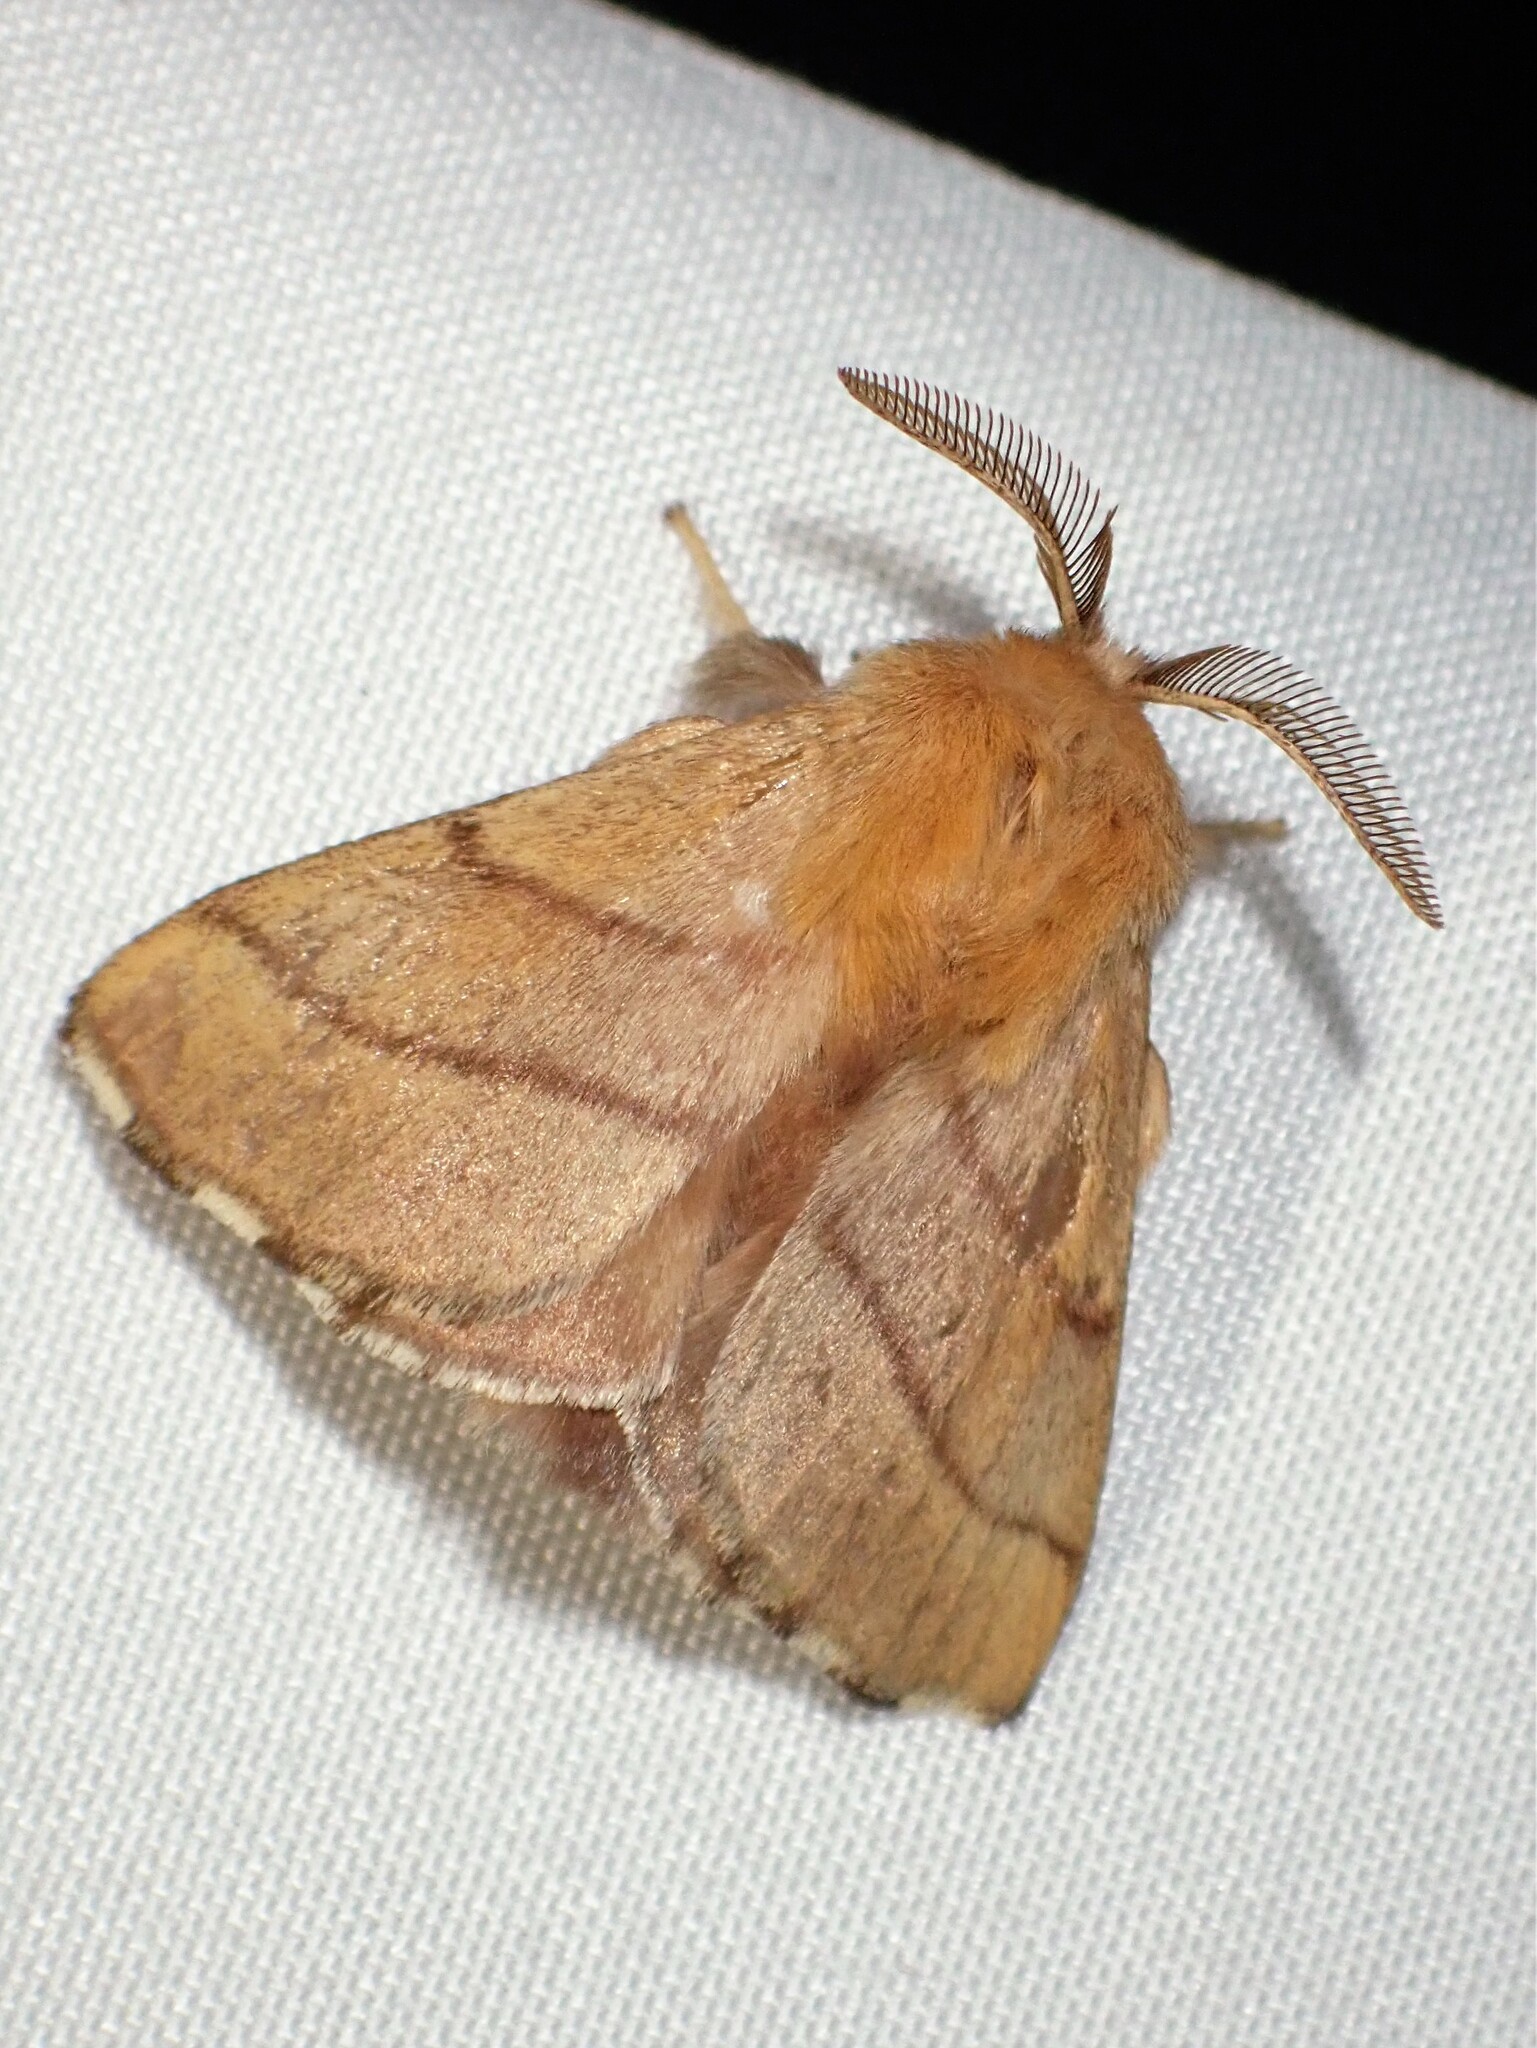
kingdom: Animalia
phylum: Arthropoda
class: Insecta
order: Lepidoptera
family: Lasiocampidae
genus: Malacosoma
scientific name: Malacosoma disstria
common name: Forest tent caterpillar
